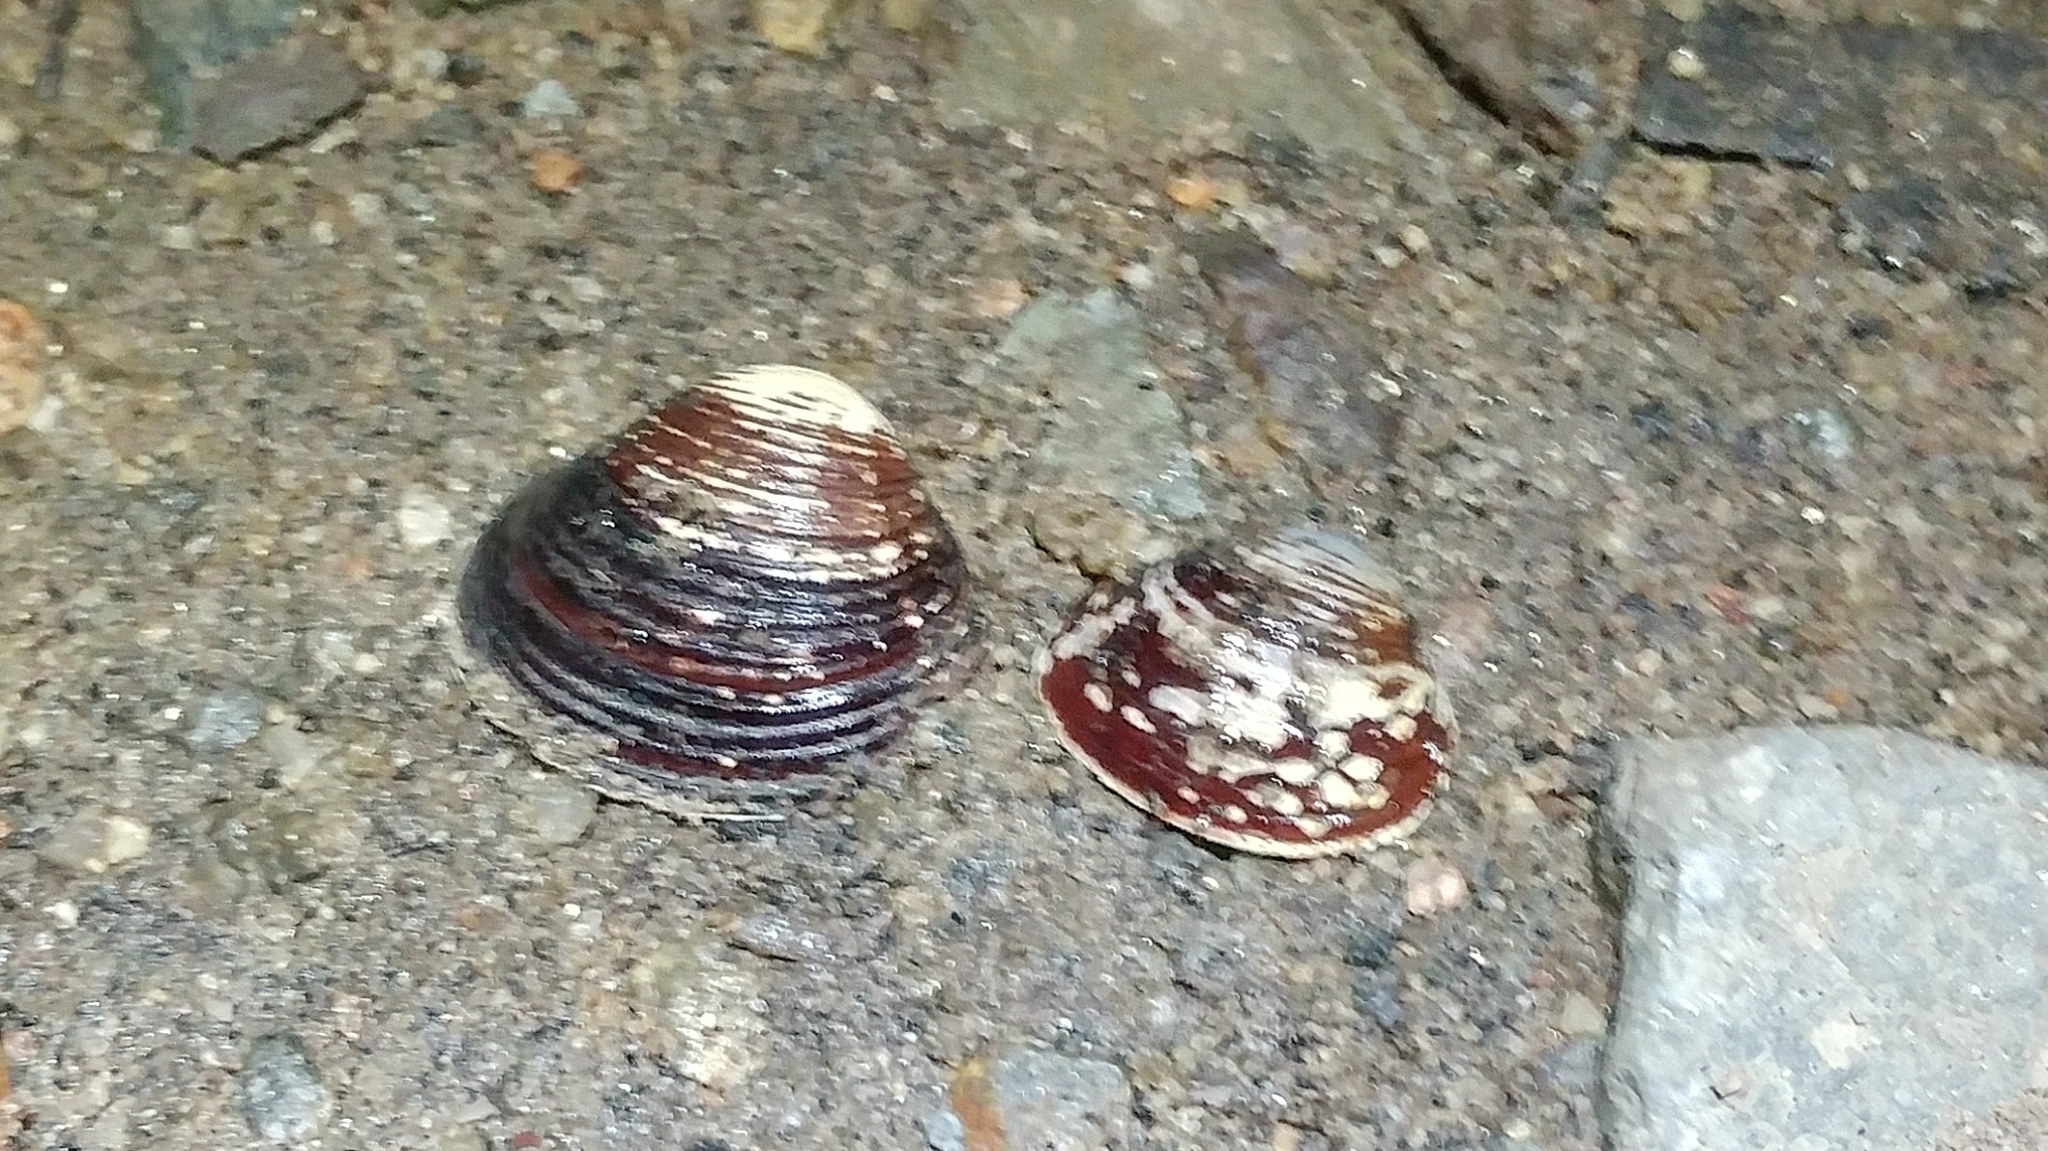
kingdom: Animalia
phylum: Mollusca
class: Bivalvia
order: Venerida
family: Cyrenidae
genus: Corbicula
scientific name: Corbicula fluminea
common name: Asian clam
